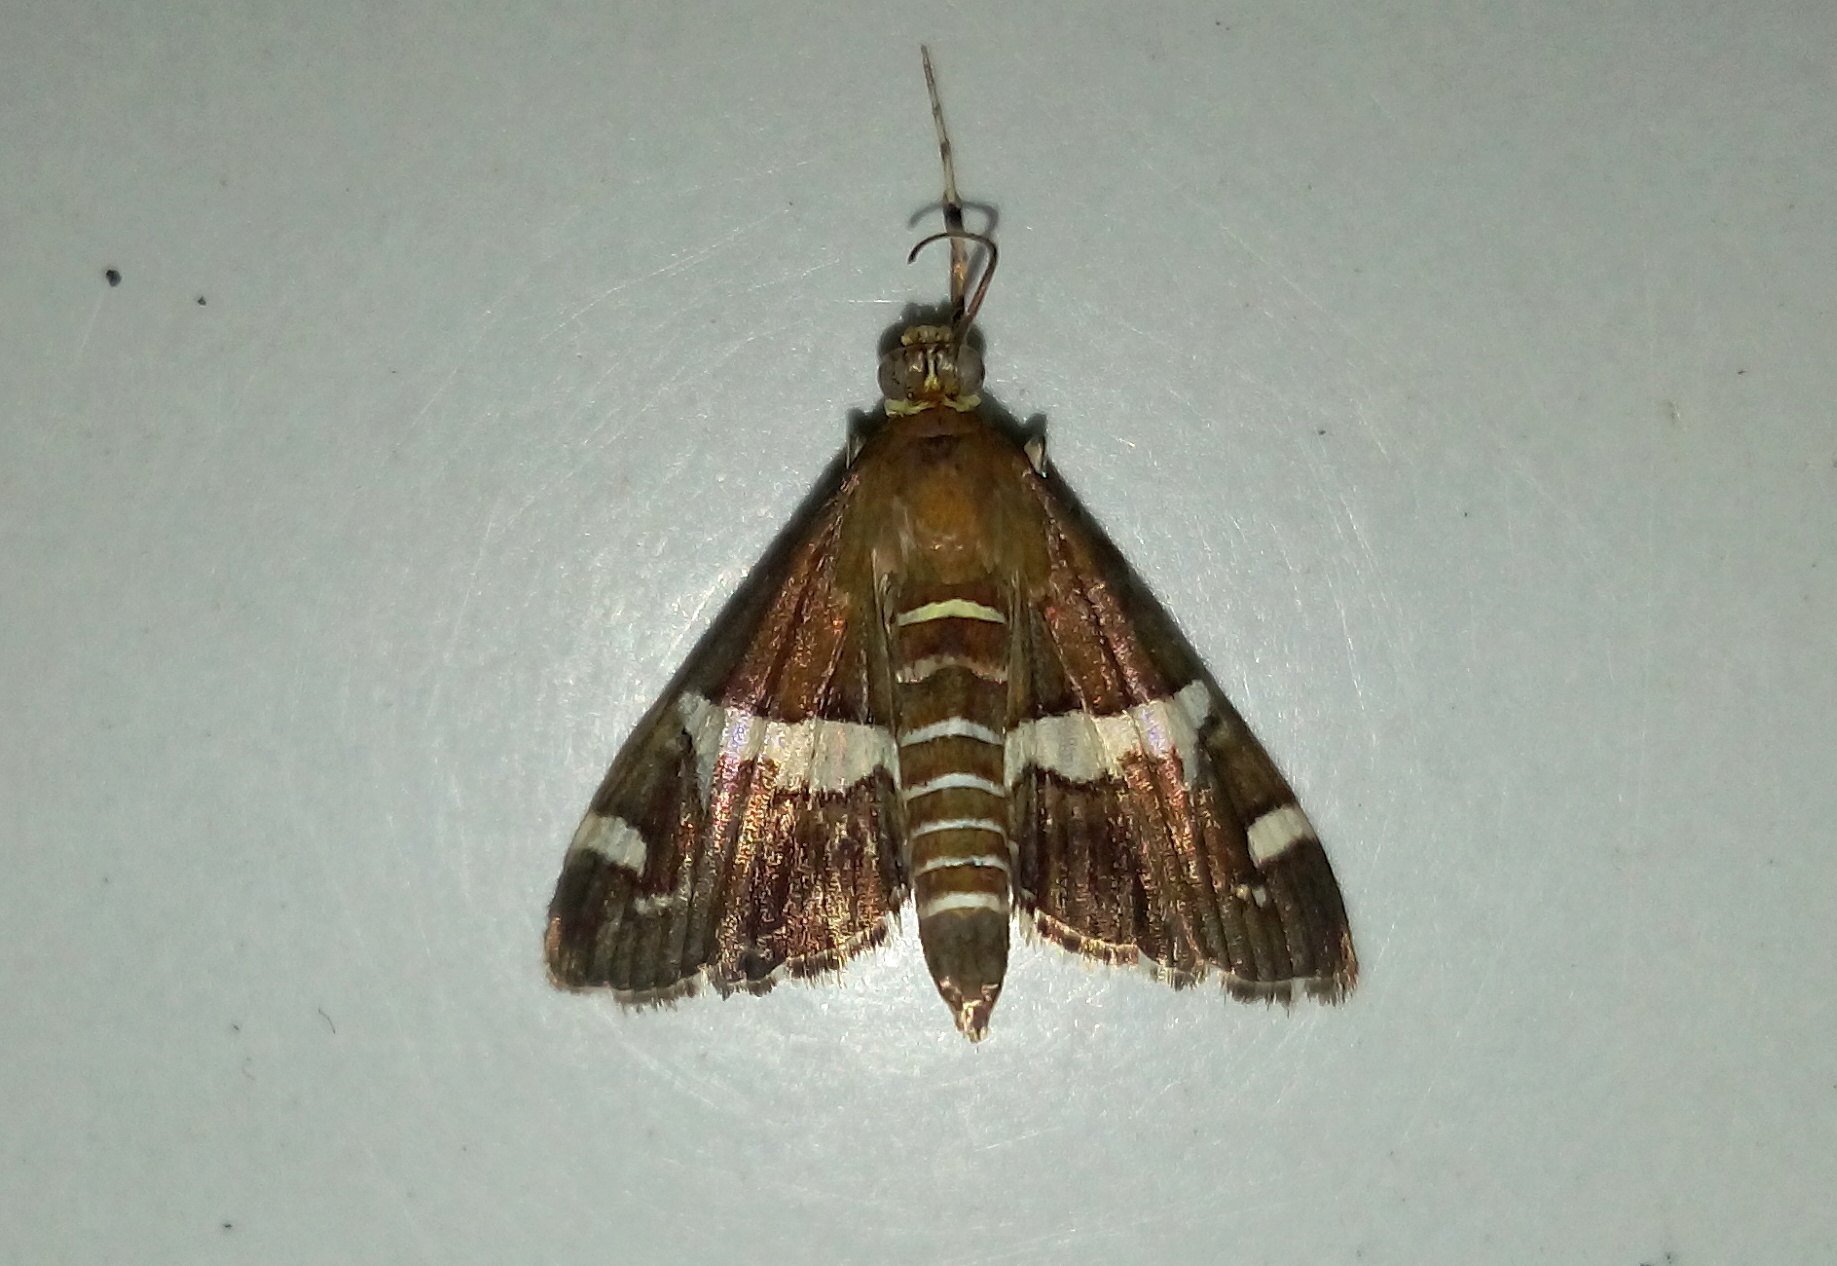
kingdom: Animalia
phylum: Arthropoda
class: Insecta
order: Lepidoptera
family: Crambidae
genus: Spoladea
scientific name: Spoladea recurvalis
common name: Beet webworm moth
